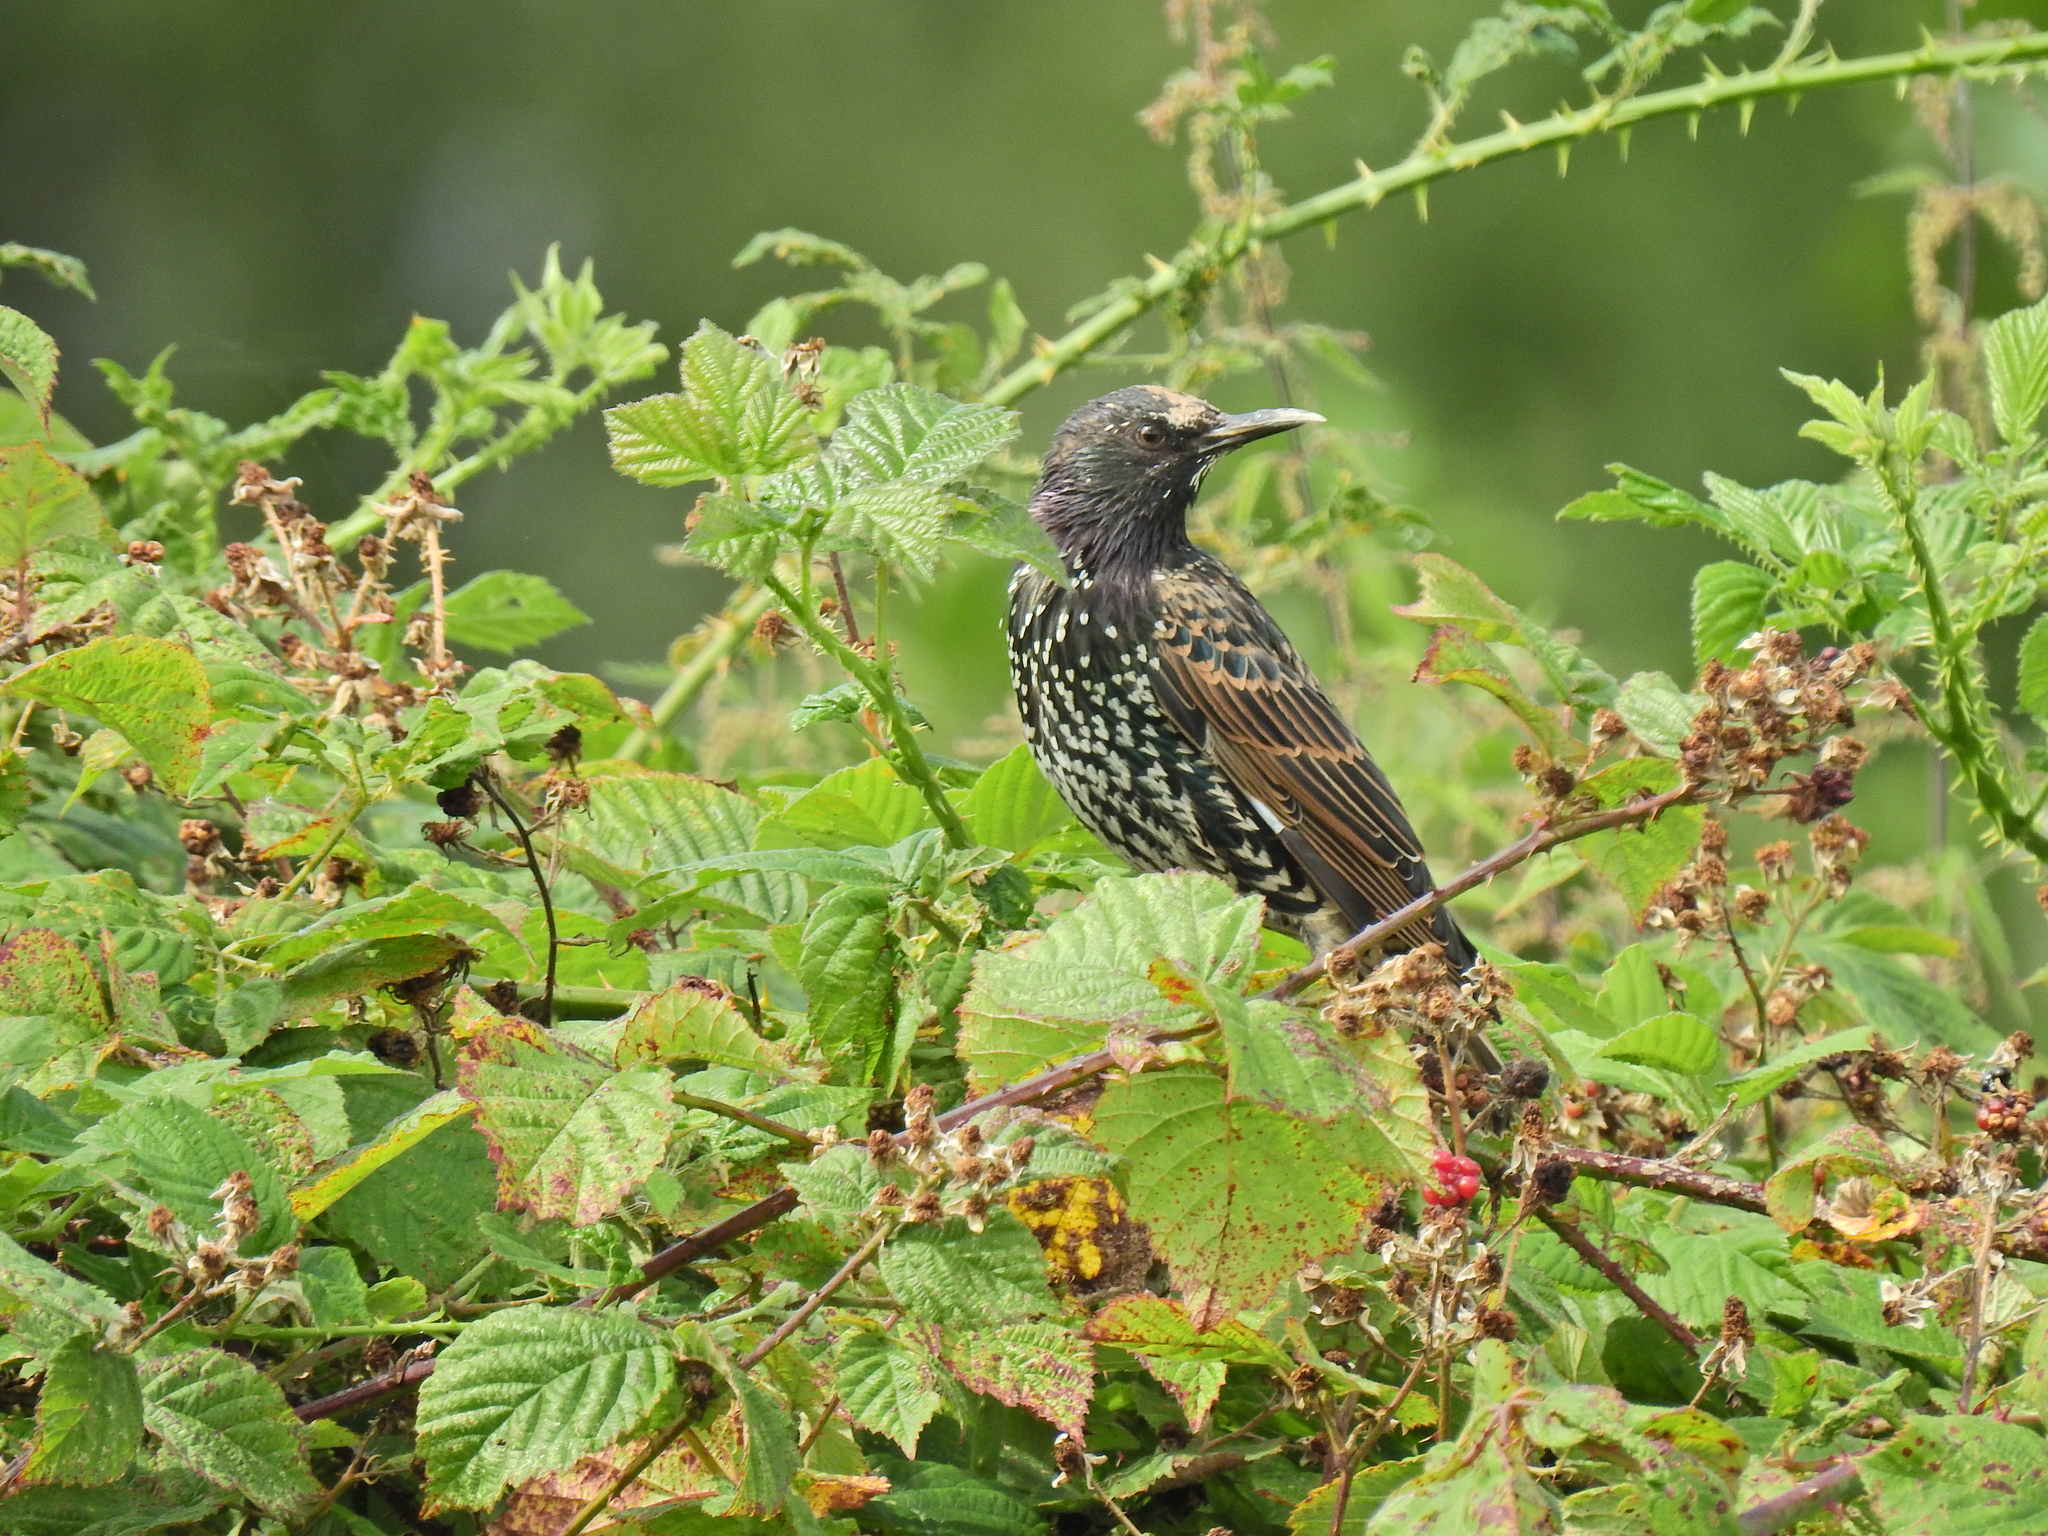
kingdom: Animalia
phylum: Chordata
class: Aves
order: Passeriformes
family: Sturnidae
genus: Sturnus
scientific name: Sturnus vulgaris
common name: Common starling
